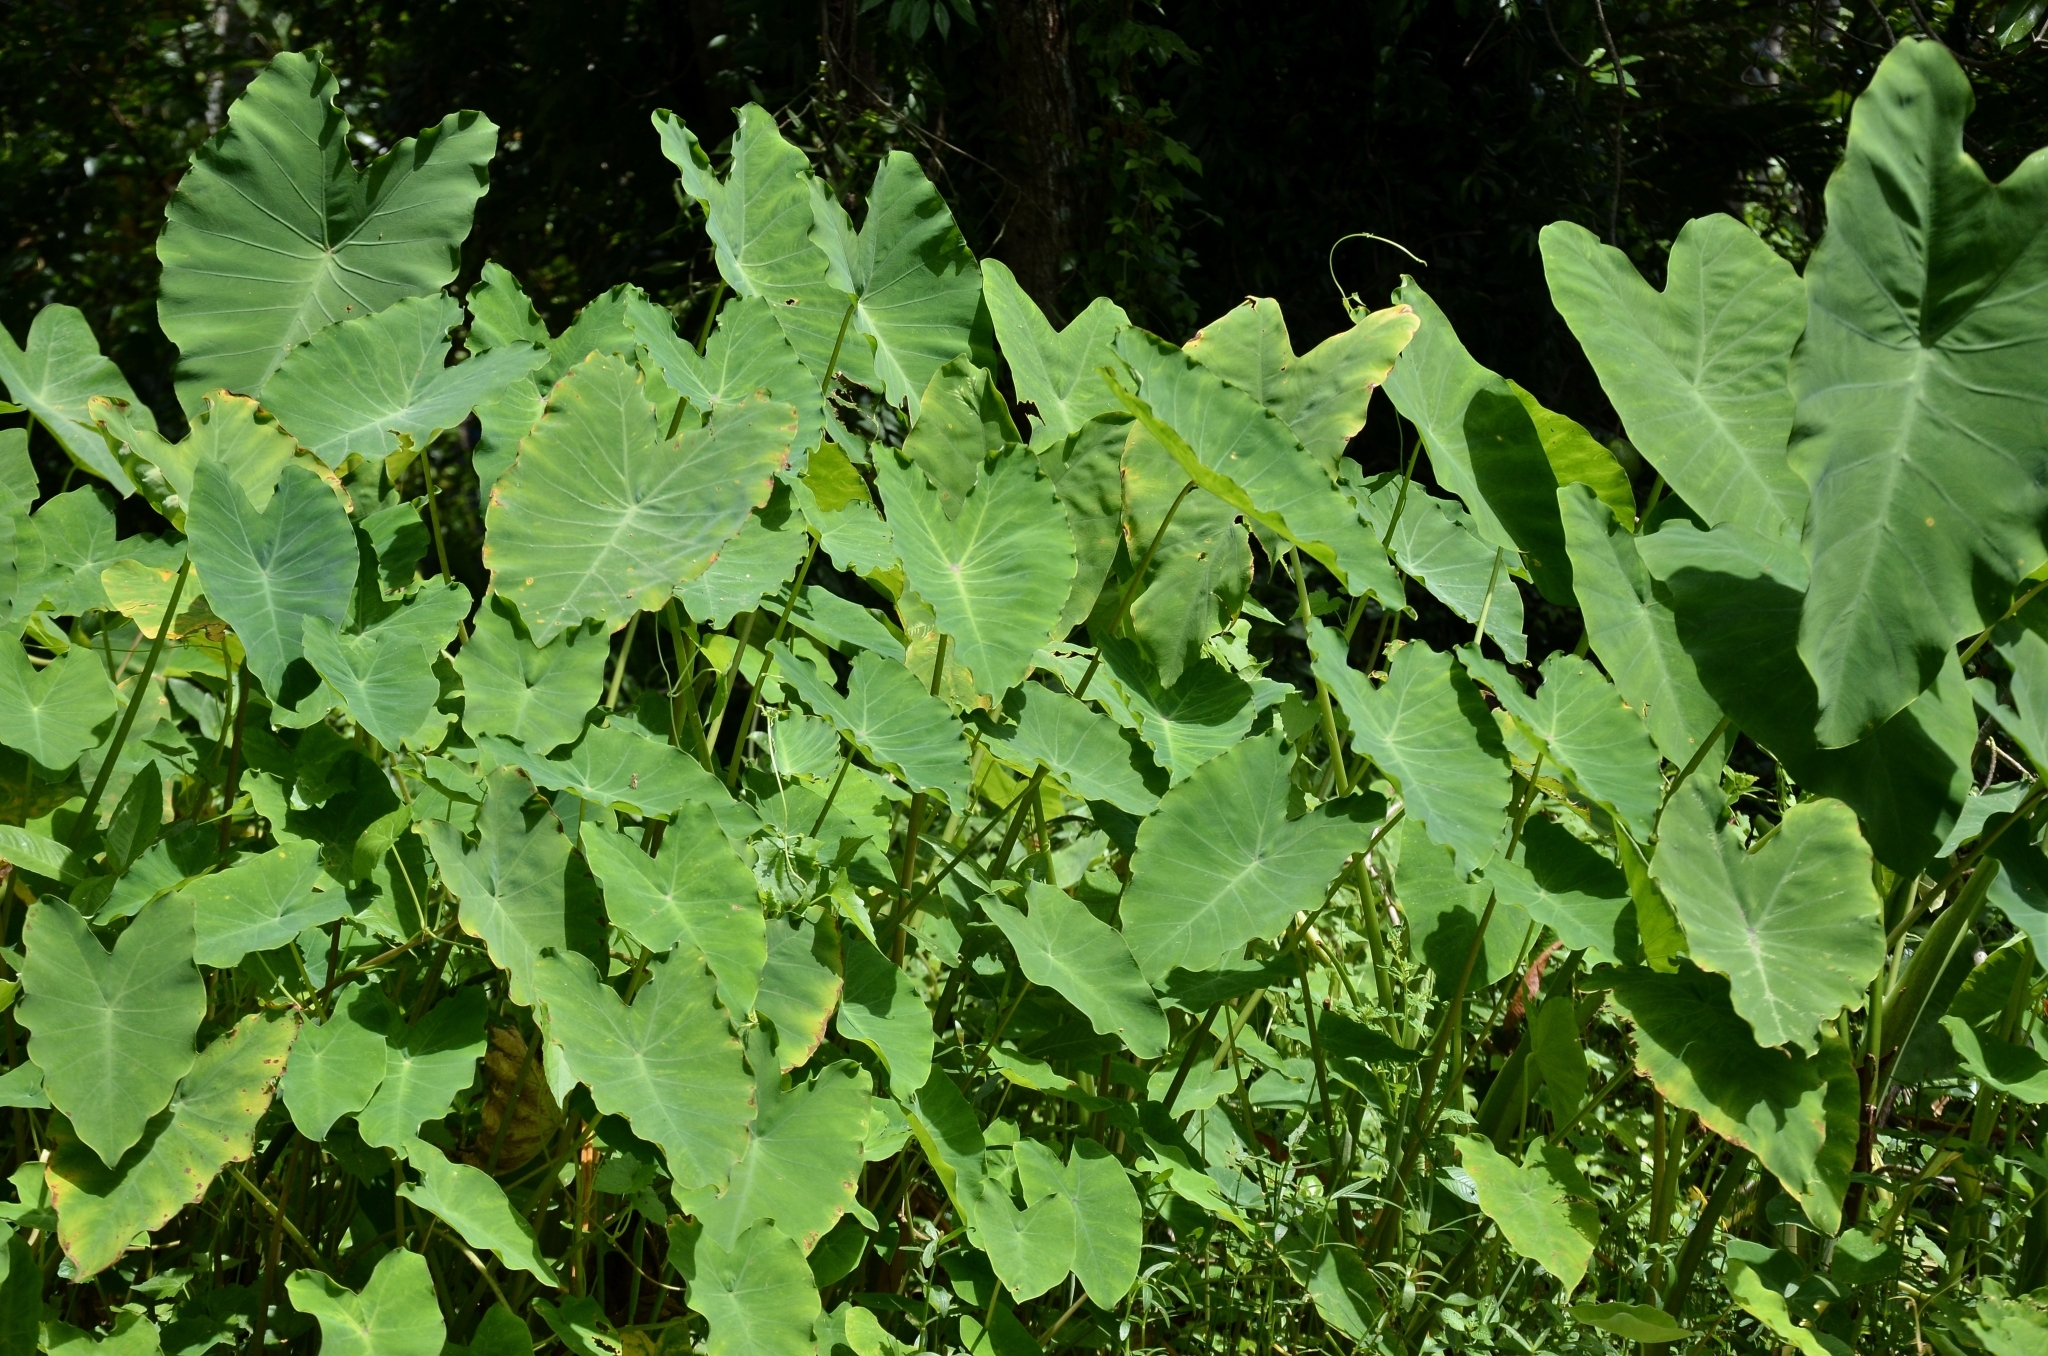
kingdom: Plantae
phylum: Tracheophyta
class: Liliopsida
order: Alismatales
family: Araceae
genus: Colocasia
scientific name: Colocasia esculenta
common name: Taro
